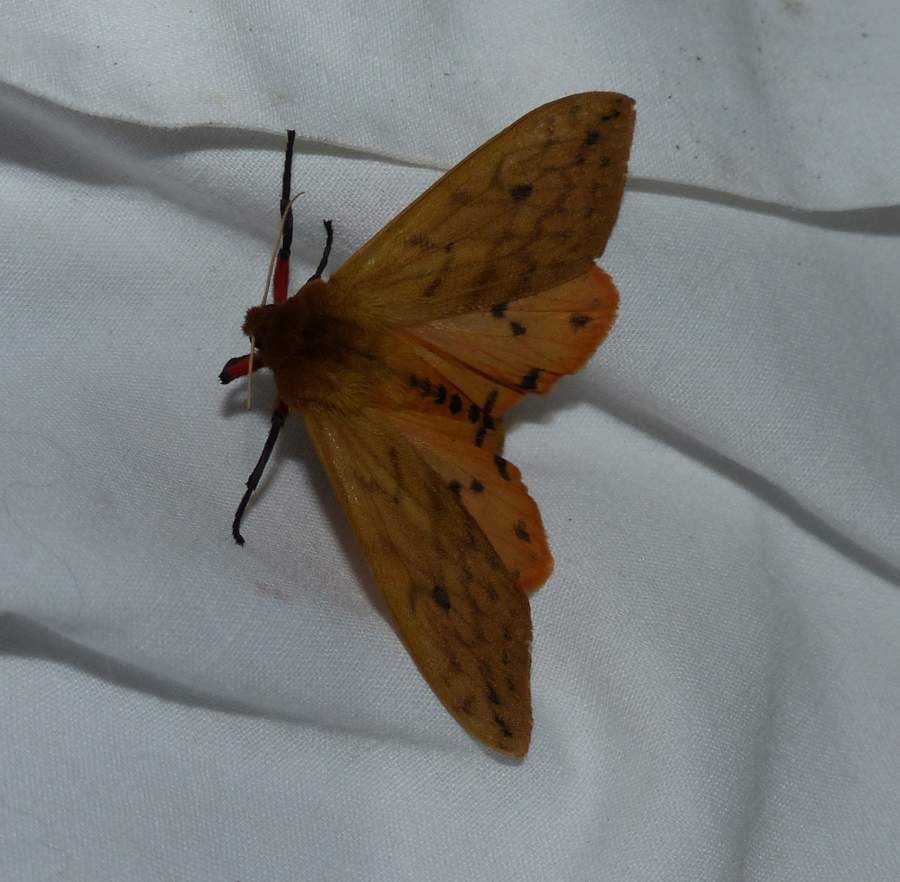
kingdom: Animalia
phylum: Arthropoda
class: Insecta
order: Lepidoptera
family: Erebidae
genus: Pyrrharctia
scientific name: Pyrrharctia isabella
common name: Isabella tiger moth
